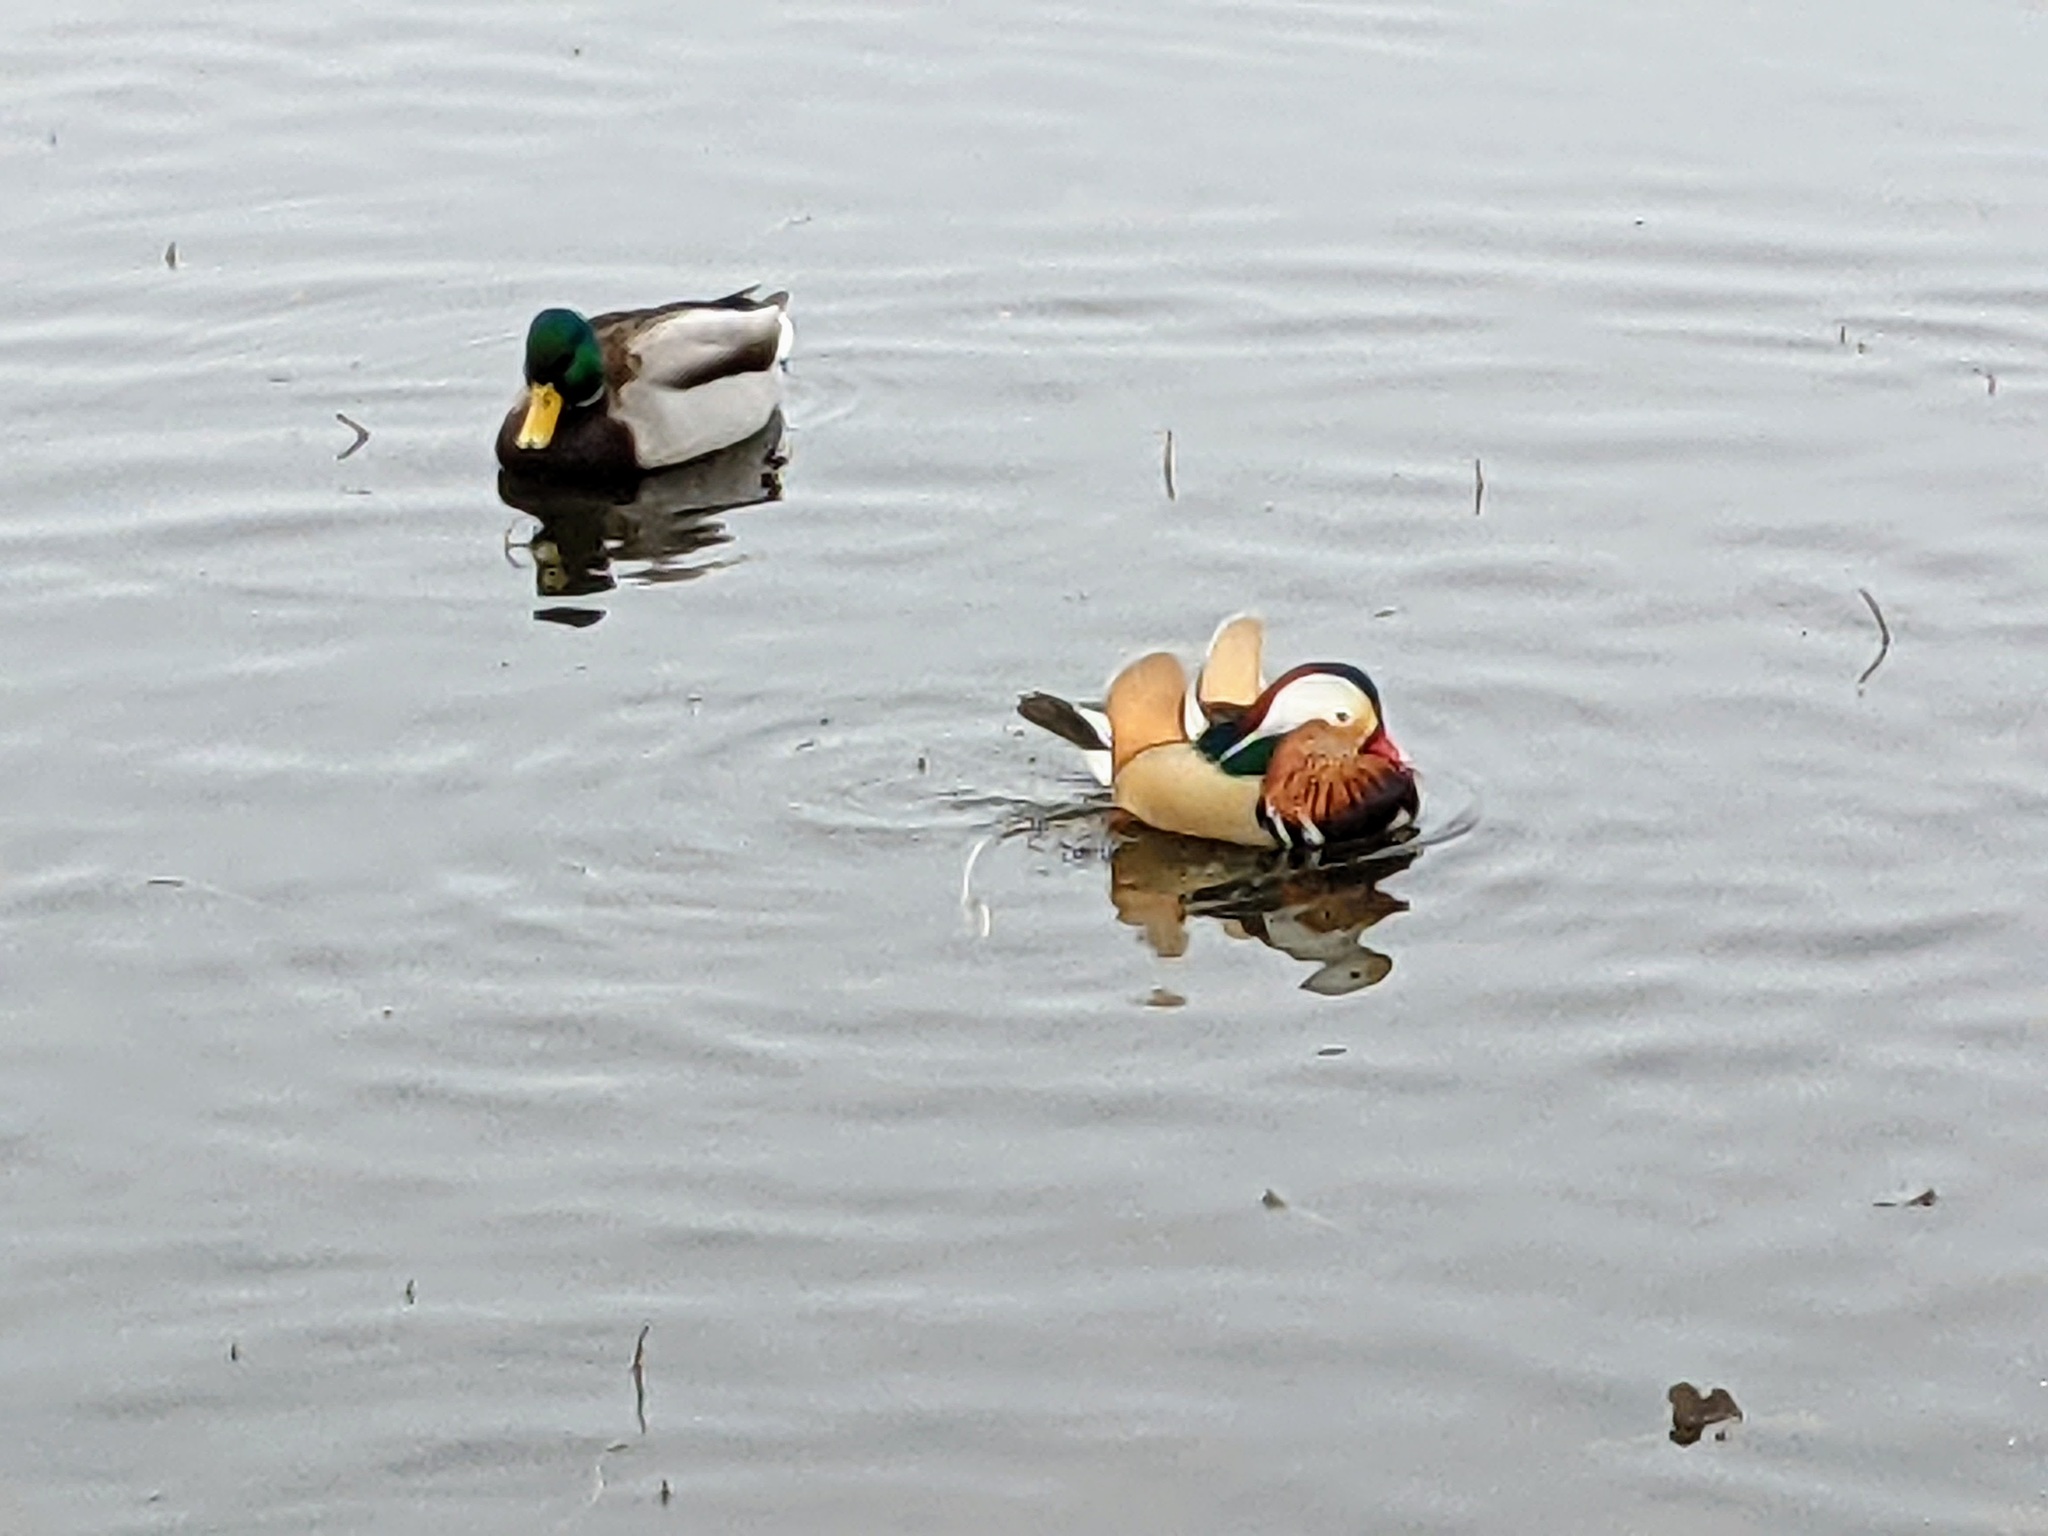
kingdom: Animalia
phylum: Chordata
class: Aves
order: Anseriformes
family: Anatidae
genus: Aix
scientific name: Aix galericulata
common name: Mandarin duck
